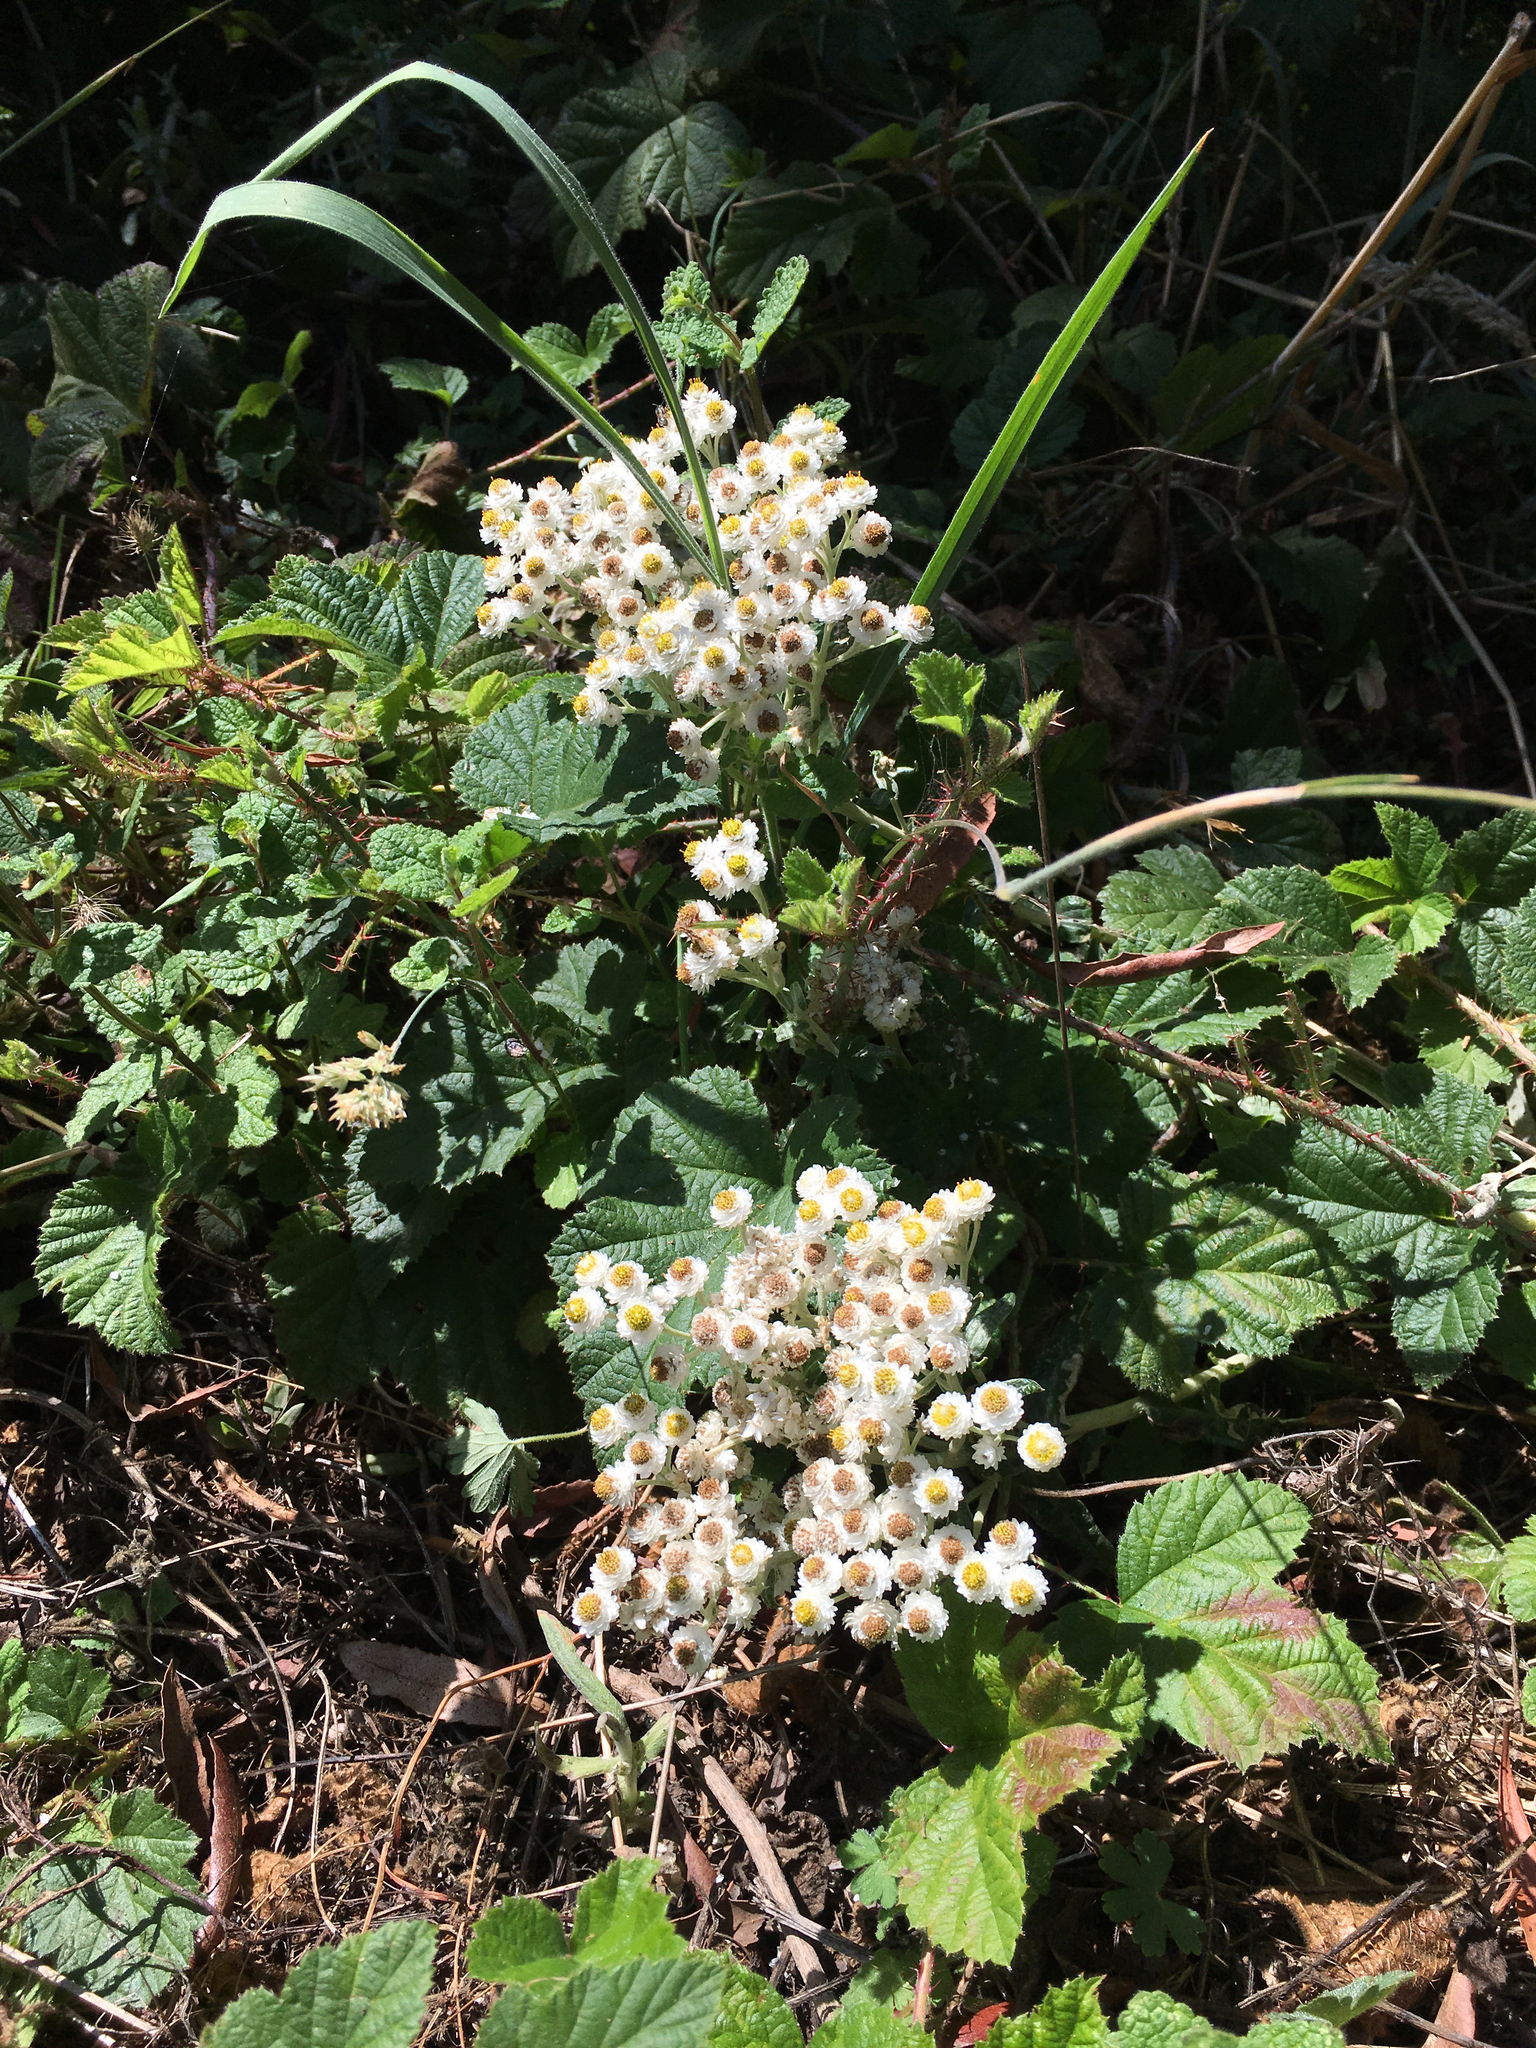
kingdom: Plantae
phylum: Tracheophyta
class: Magnoliopsida
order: Asterales
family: Asteraceae
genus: Anaphalis
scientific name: Anaphalis margaritacea
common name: Pearly everlasting
